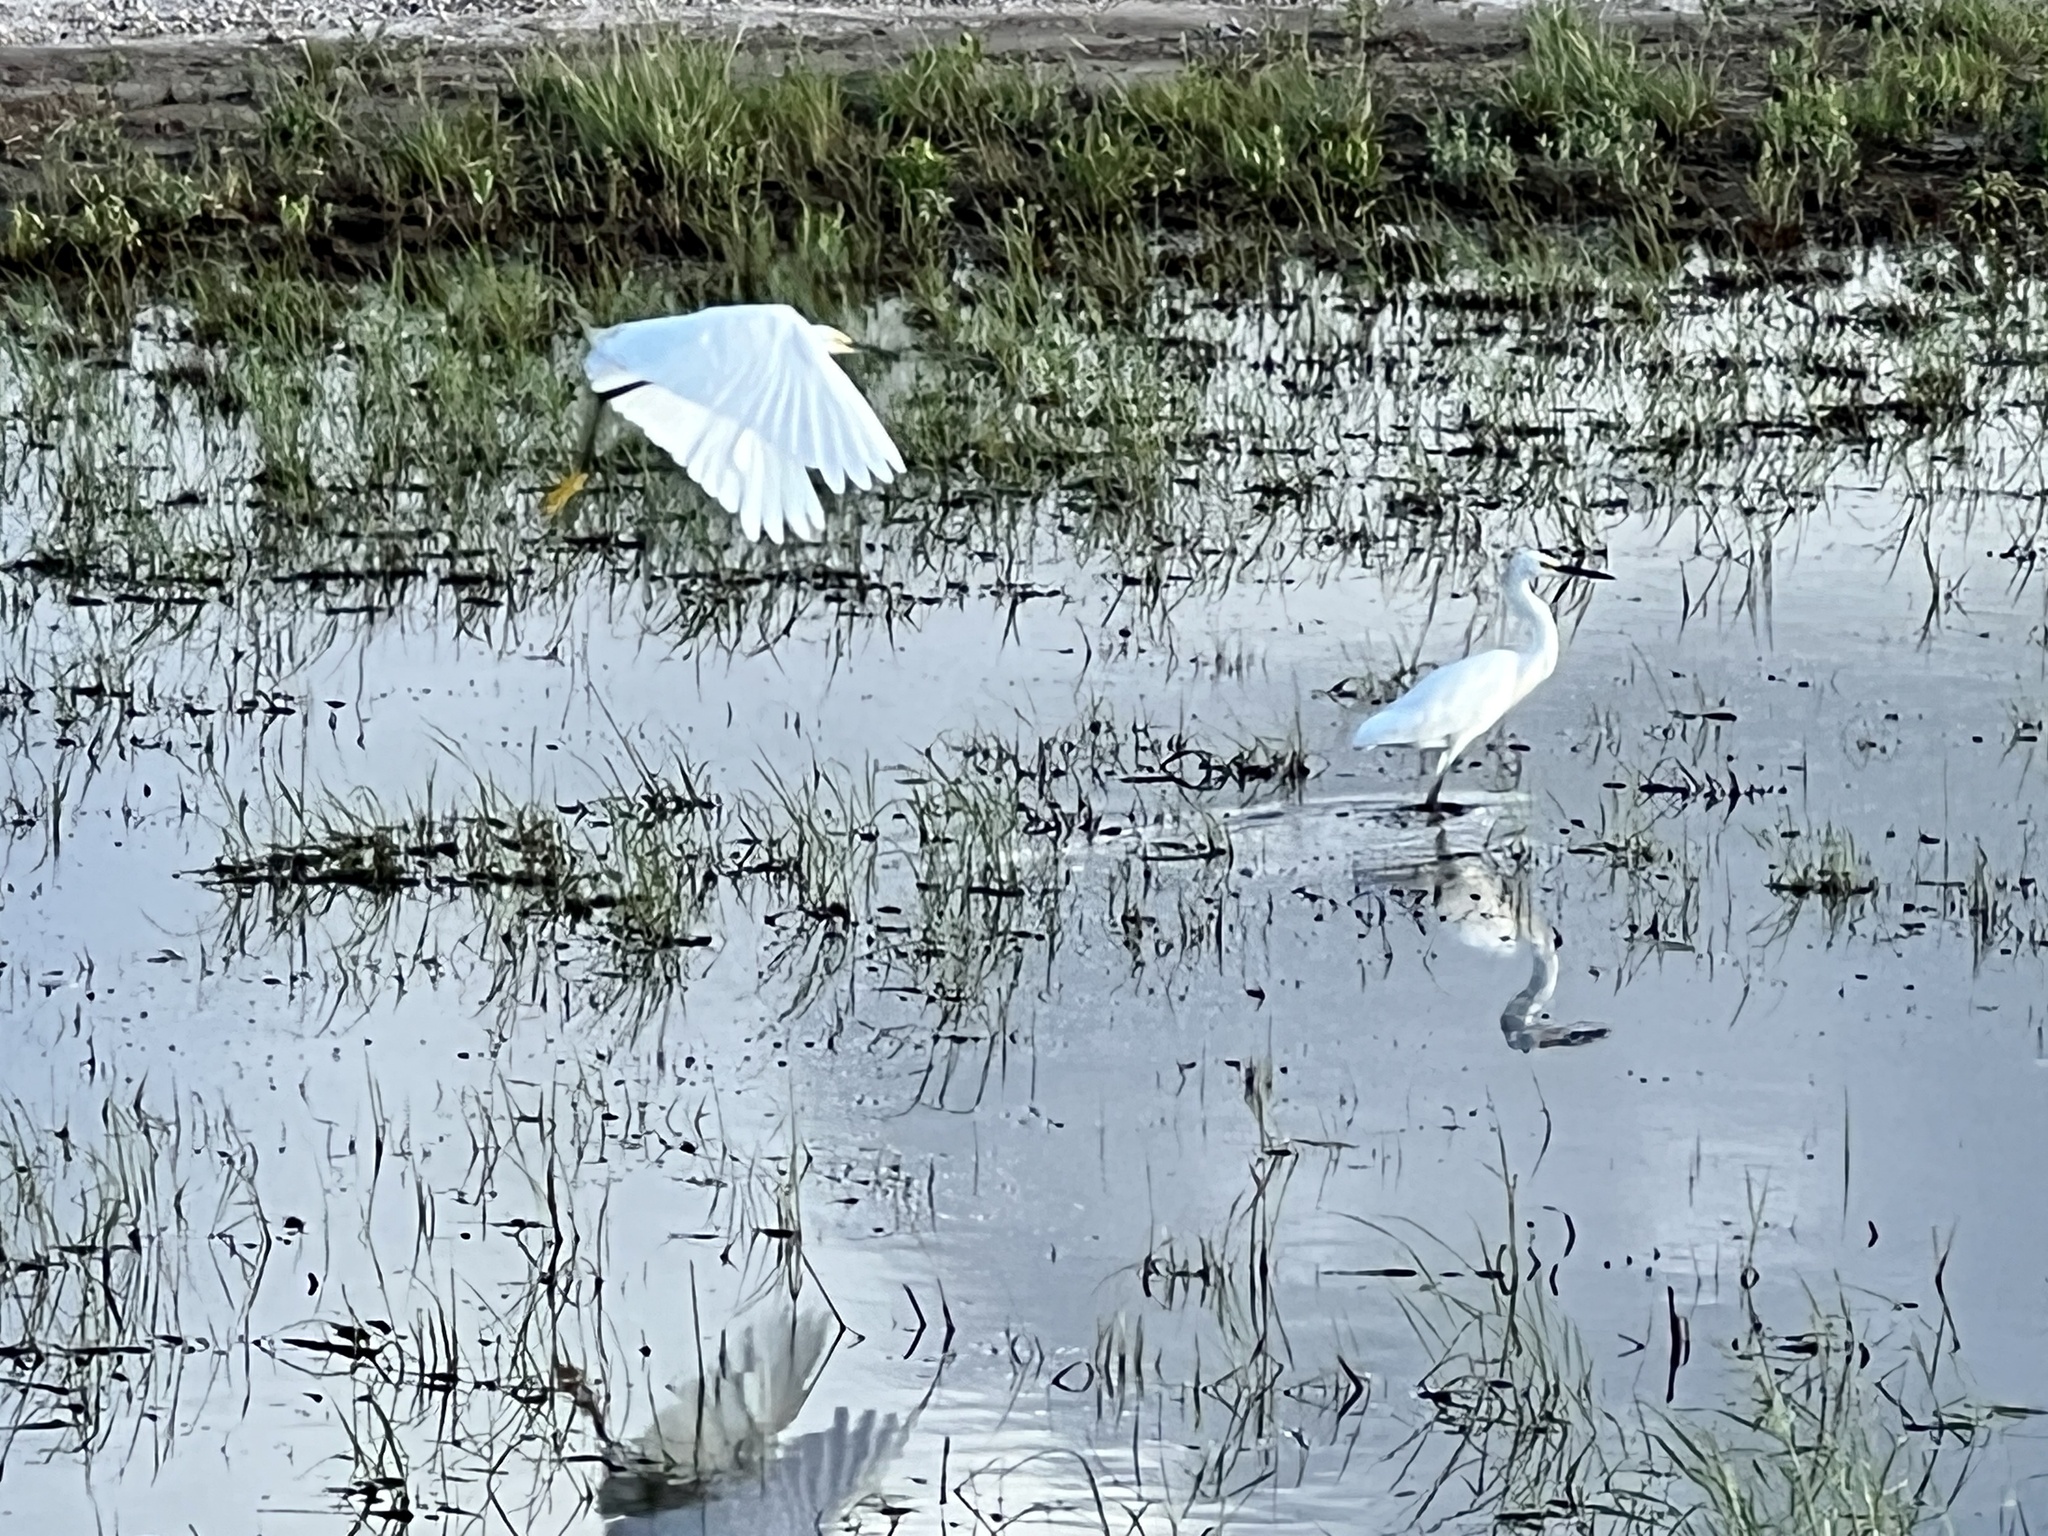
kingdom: Animalia
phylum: Chordata
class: Aves
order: Pelecaniformes
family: Ardeidae
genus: Egretta
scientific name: Egretta thula
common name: Snowy egret
